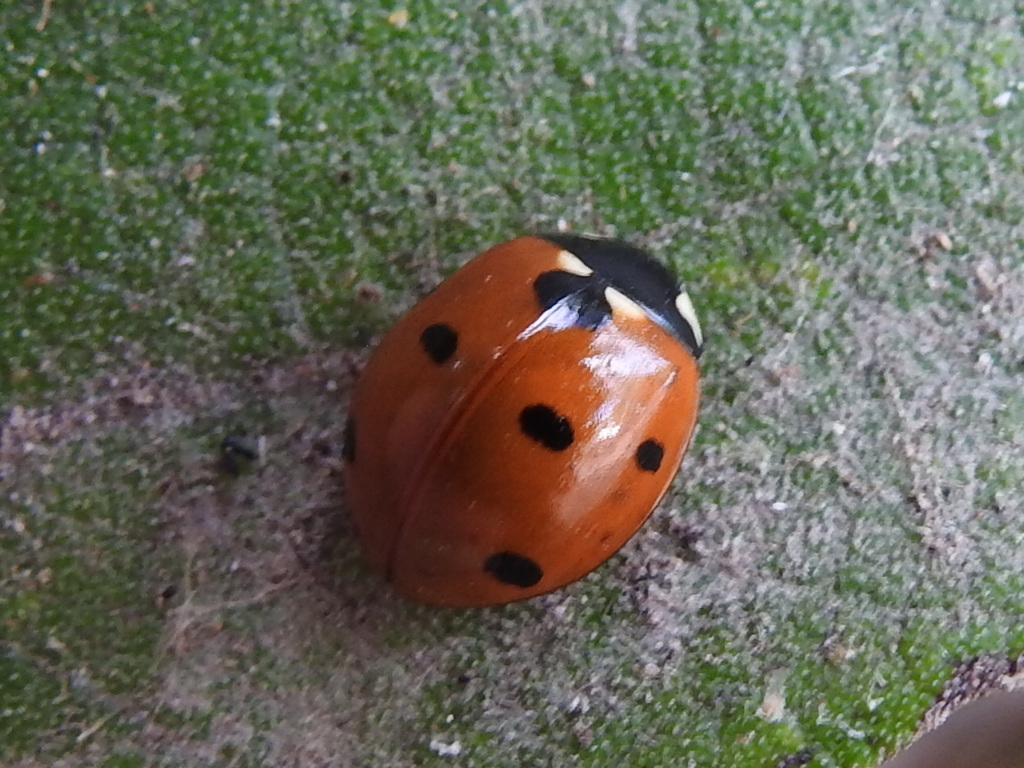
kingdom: Animalia
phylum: Arthropoda
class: Insecta
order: Coleoptera
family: Coccinellidae
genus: Coccinella
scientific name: Coccinella septempunctata
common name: Sevenspotted lady beetle
